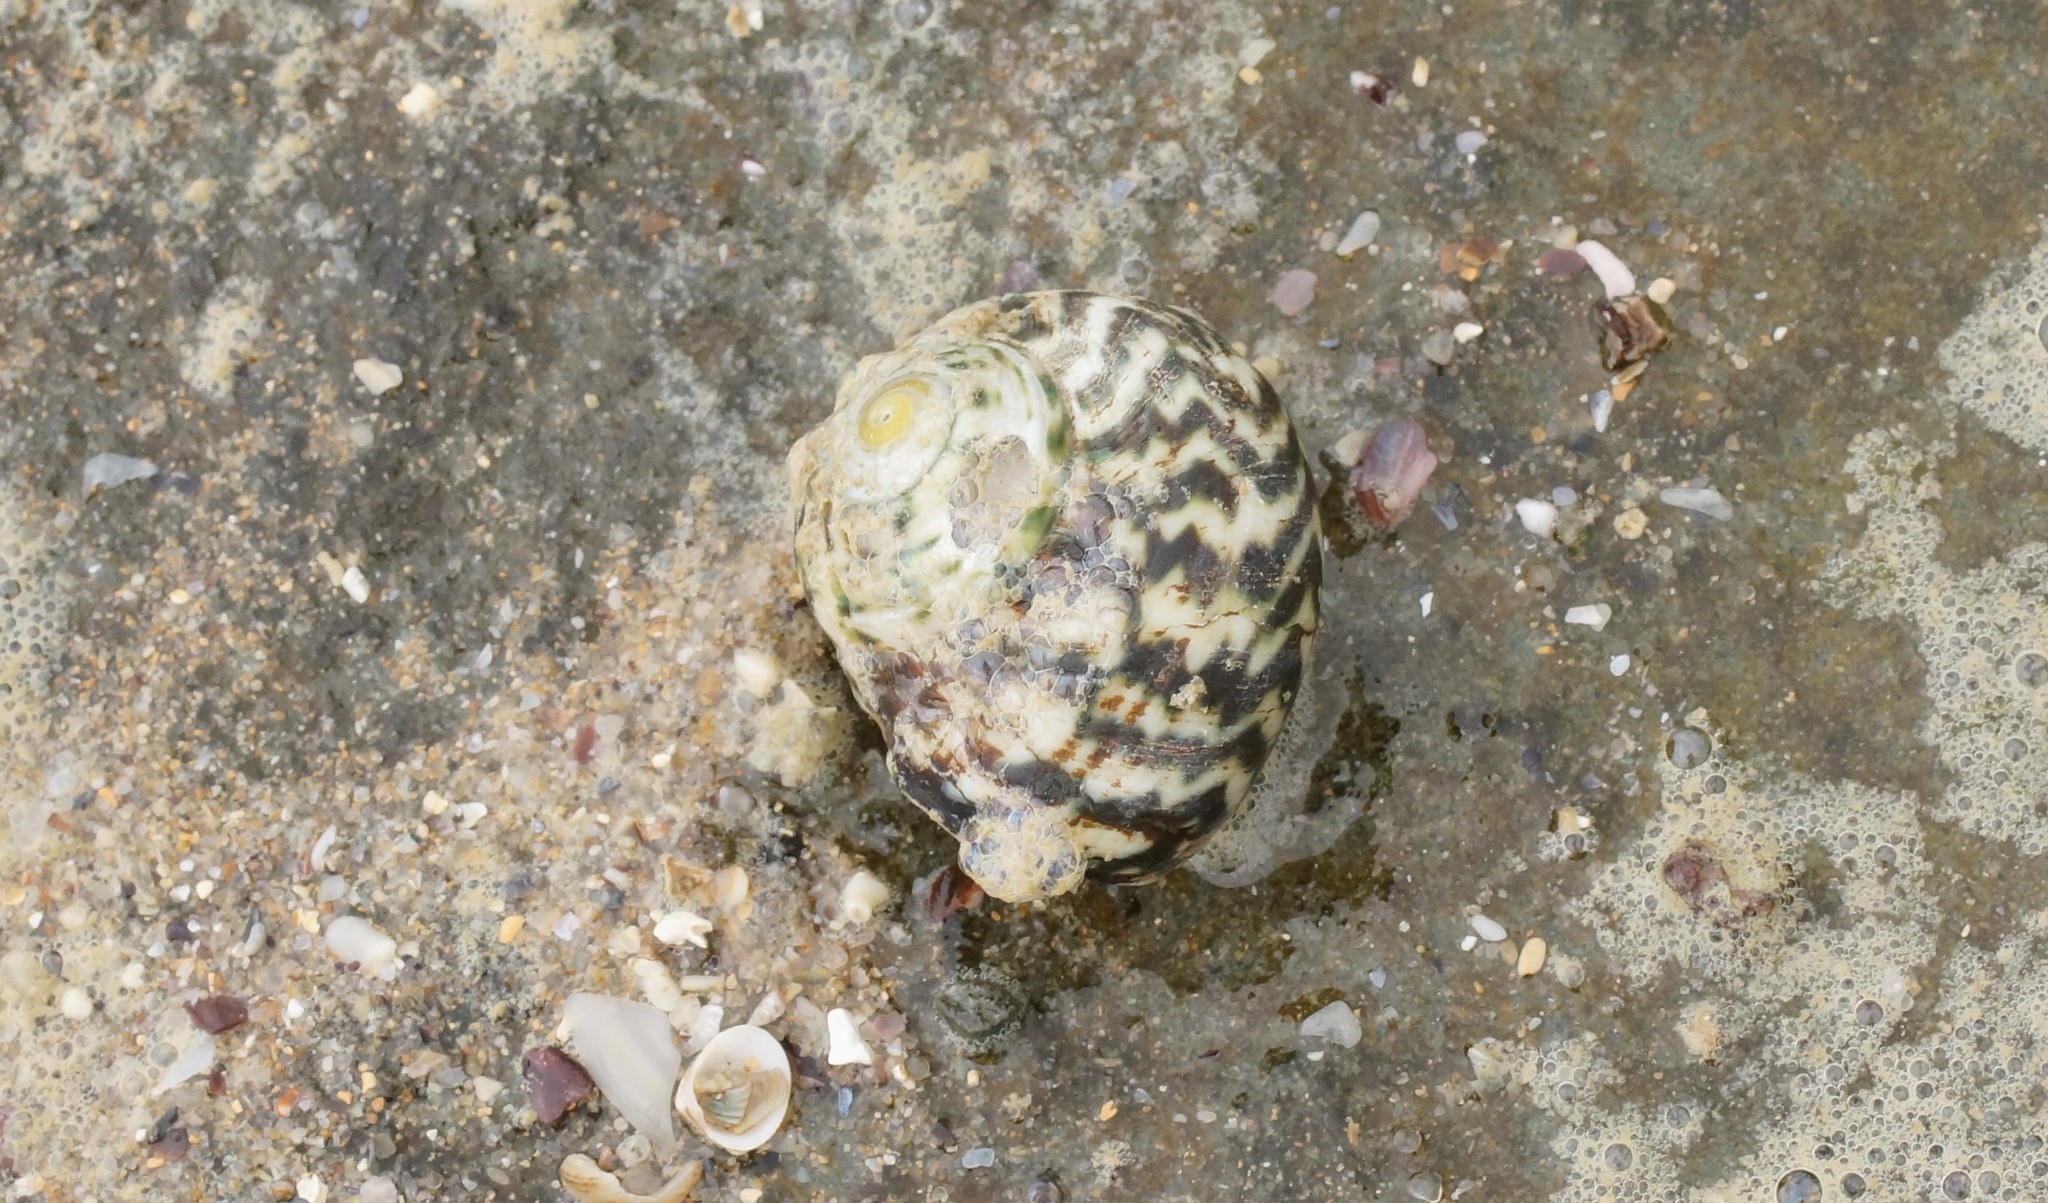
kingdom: Animalia
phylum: Mollusca
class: Gastropoda
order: Trochida
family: Turbinidae
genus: Lunella
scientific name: Lunella undulata
